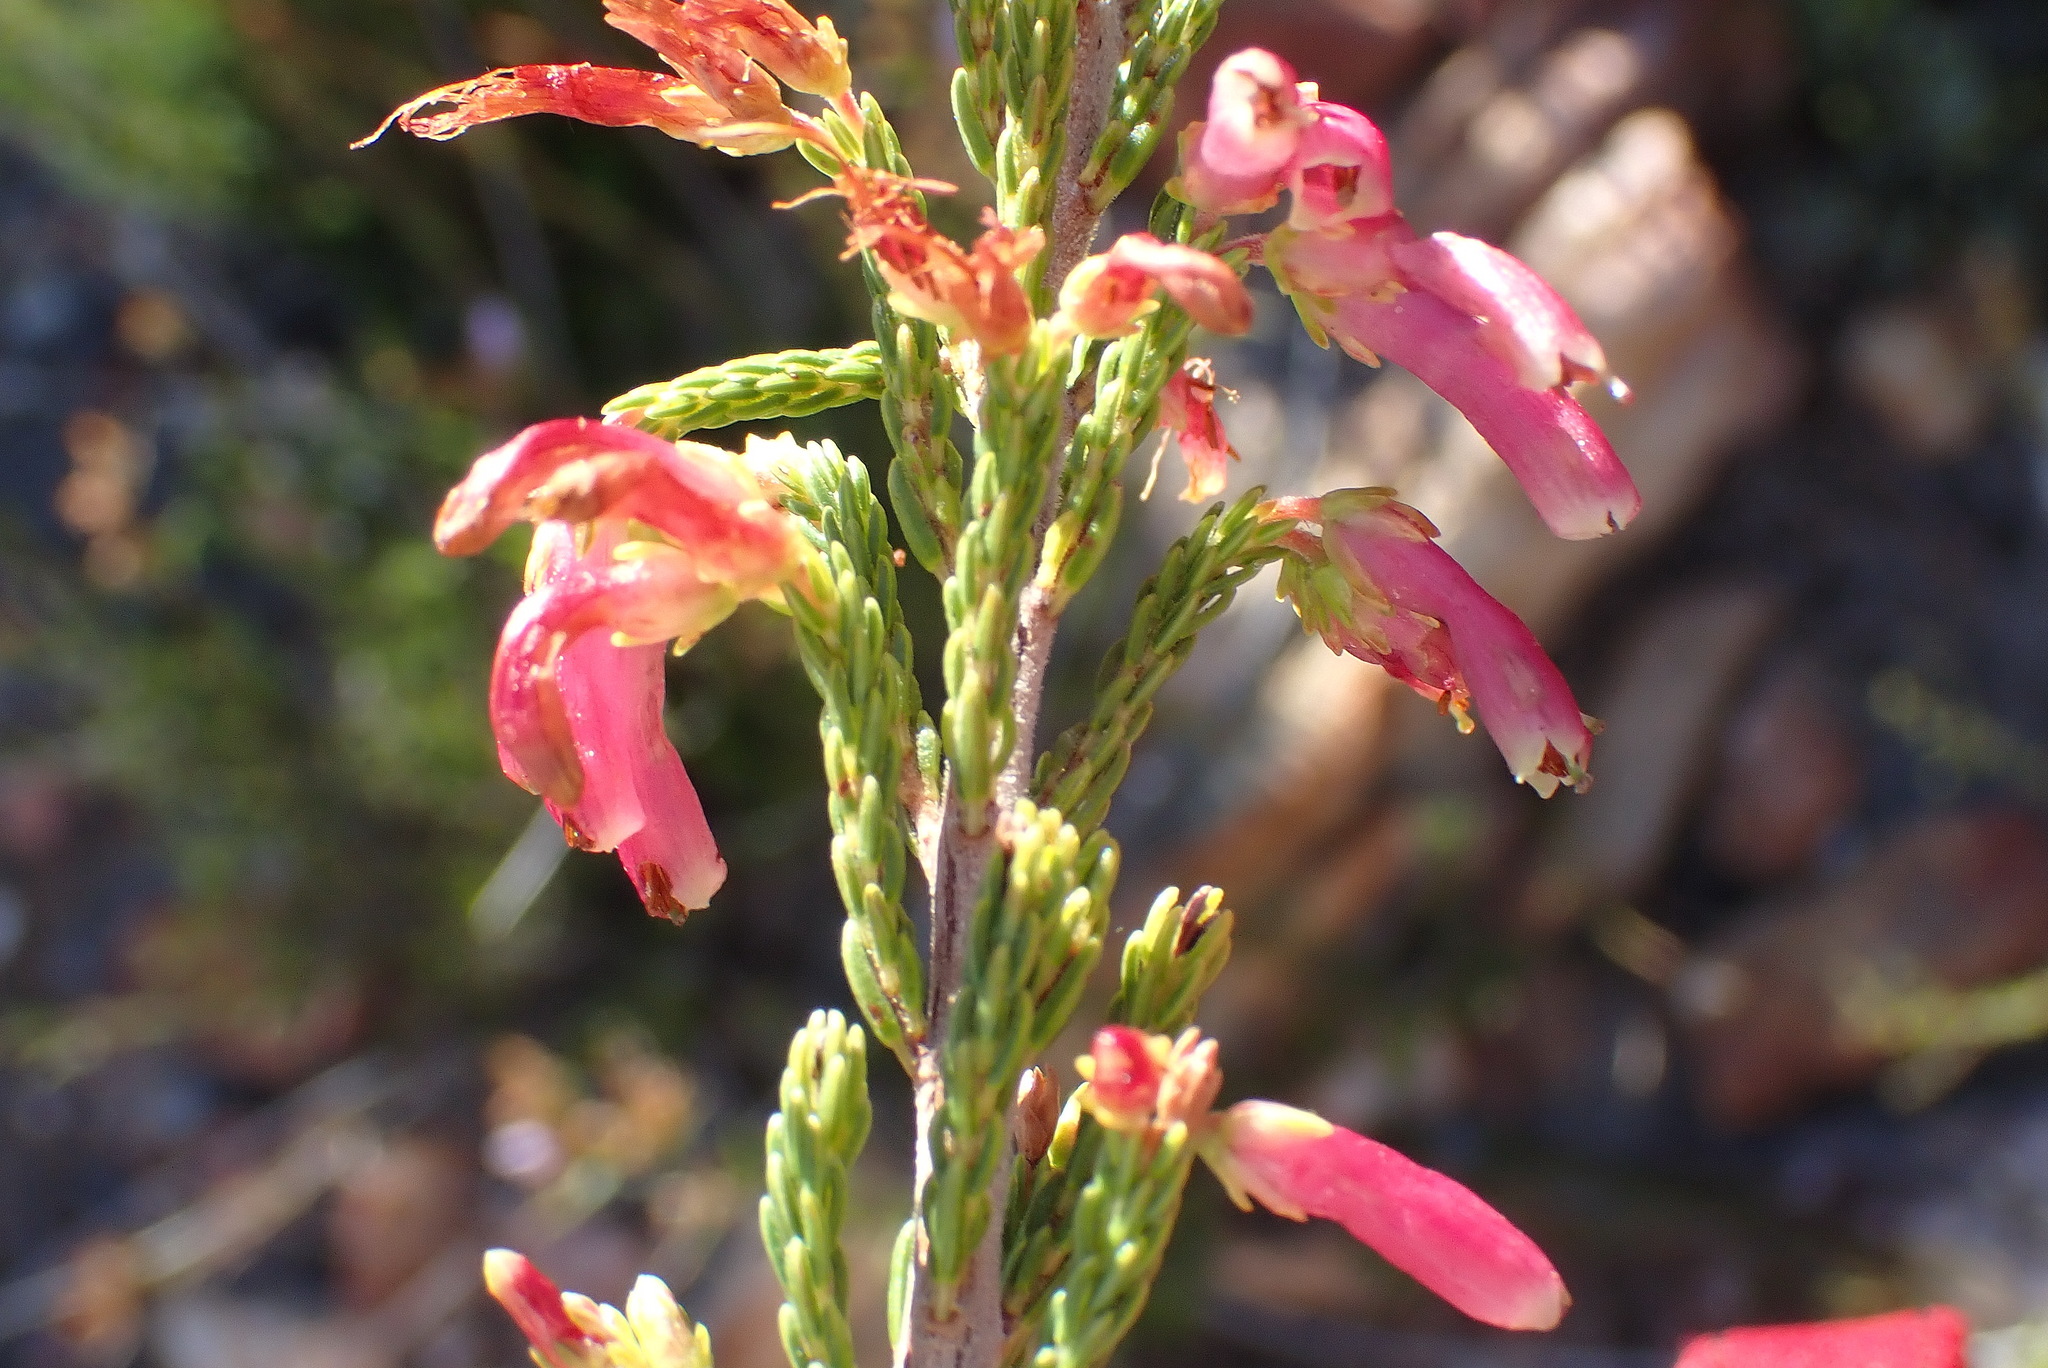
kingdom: Plantae
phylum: Tracheophyta
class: Magnoliopsida
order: Ericales
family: Ericaceae
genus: Erica
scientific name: Erica discolor
